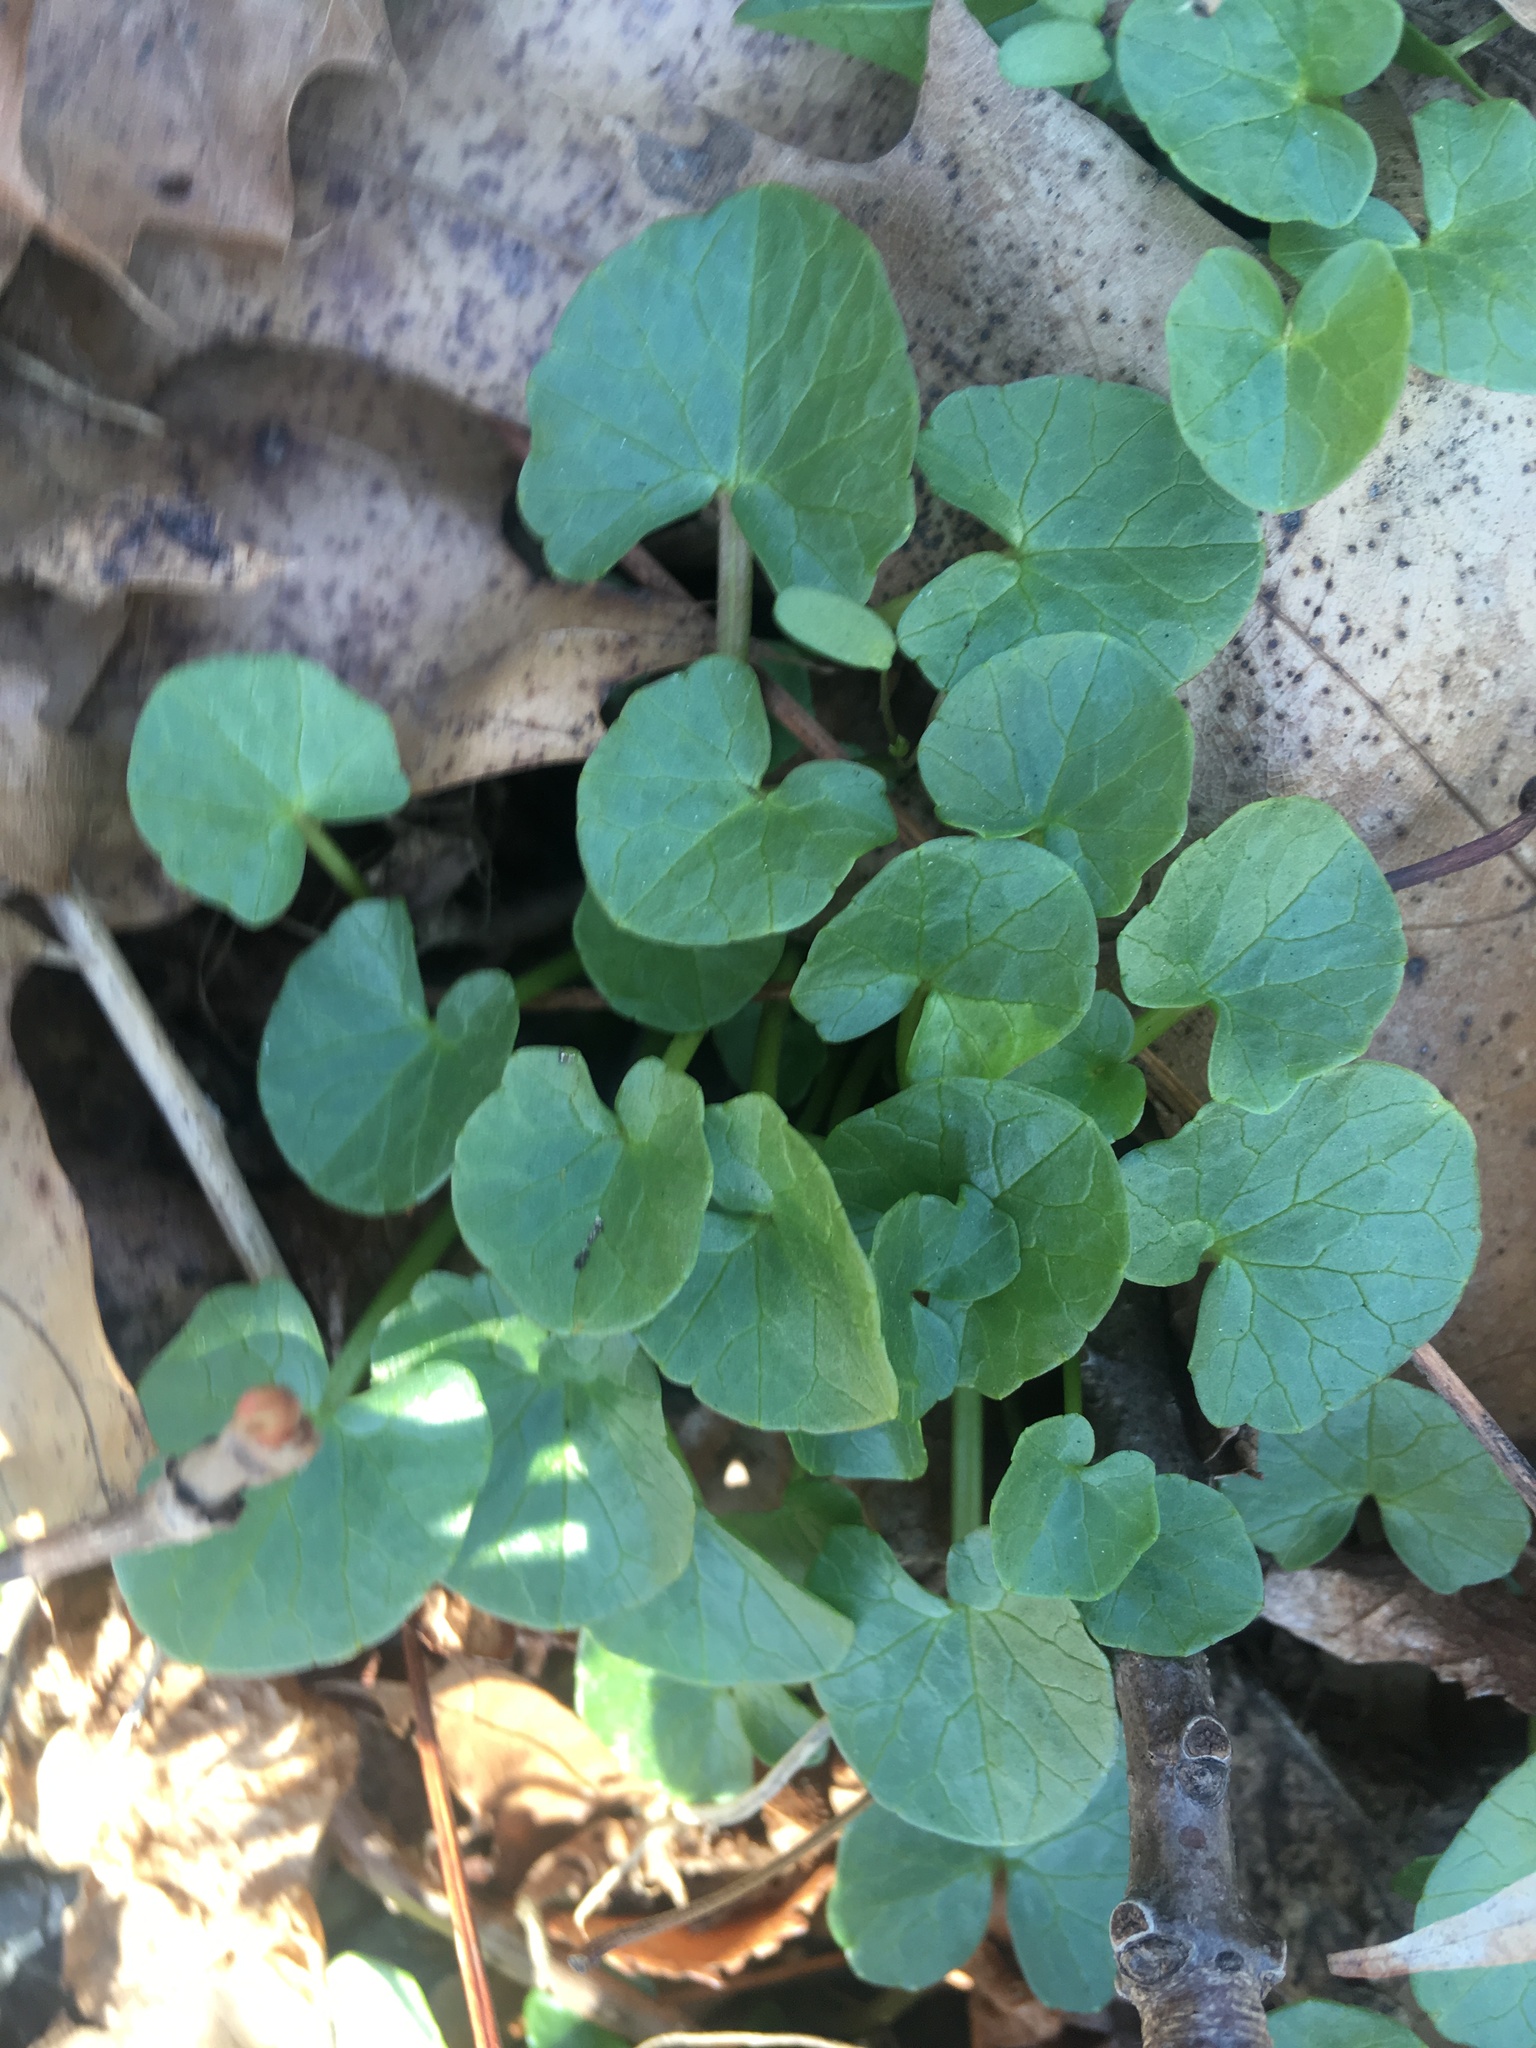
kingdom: Plantae
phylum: Tracheophyta
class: Magnoliopsida
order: Ranunculales
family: Ranunculaceae
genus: Ficaria
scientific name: Ficaria verna
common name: Lesser celandine
